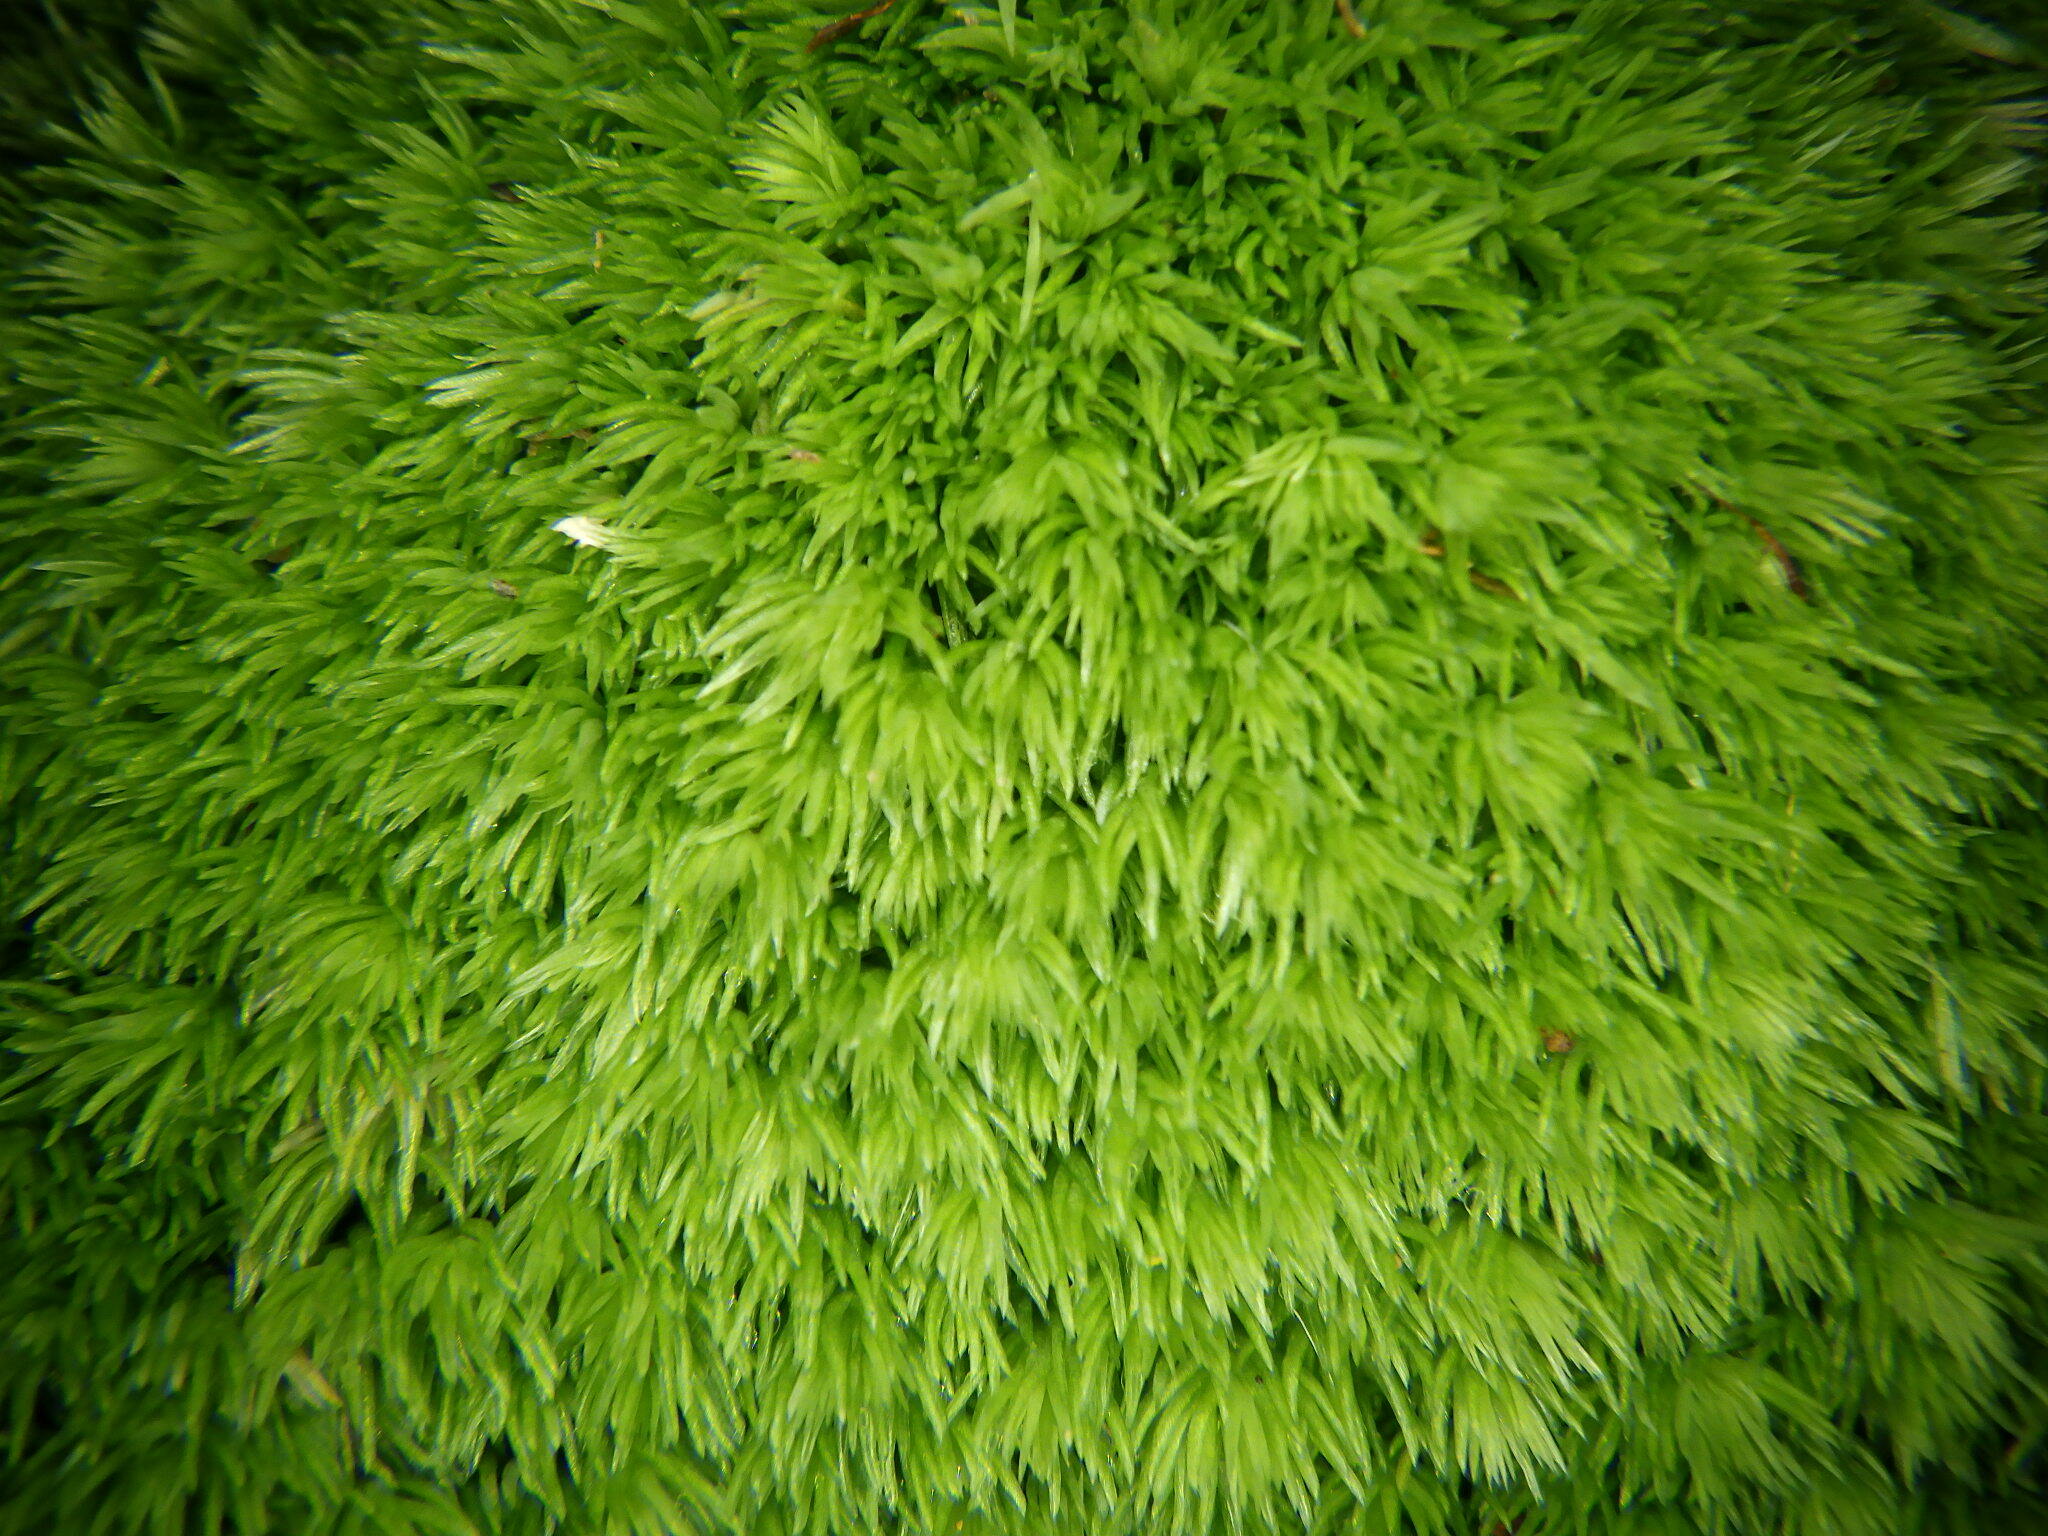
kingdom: Plantae
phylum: Bryophyta
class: Bryopsida
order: Dicranales
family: Leucobryaceae
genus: Leucobryum
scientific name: Leucobryum glaucum
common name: Large white-moss
